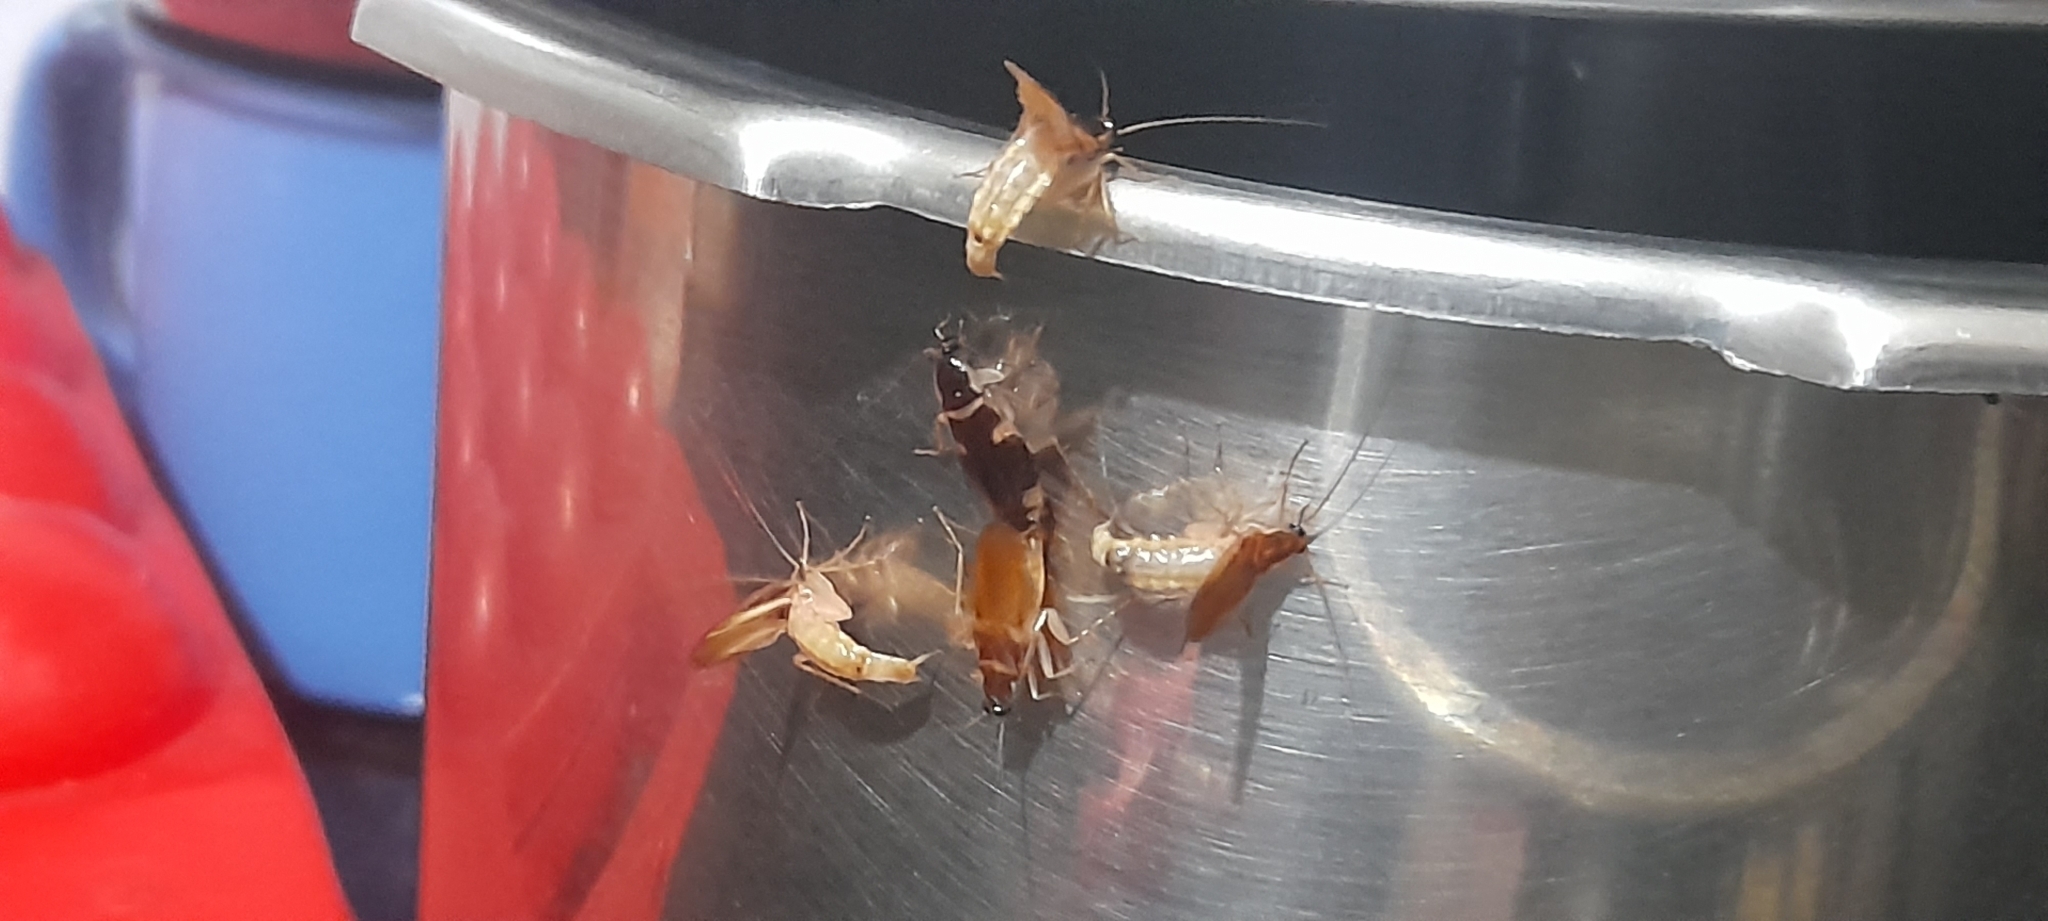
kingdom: Animalia
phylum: Arthropoda
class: Insecta
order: Blattodea
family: Ectobiidae
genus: Supella
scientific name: Supella longipalpa
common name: Brown-banded cockroach
